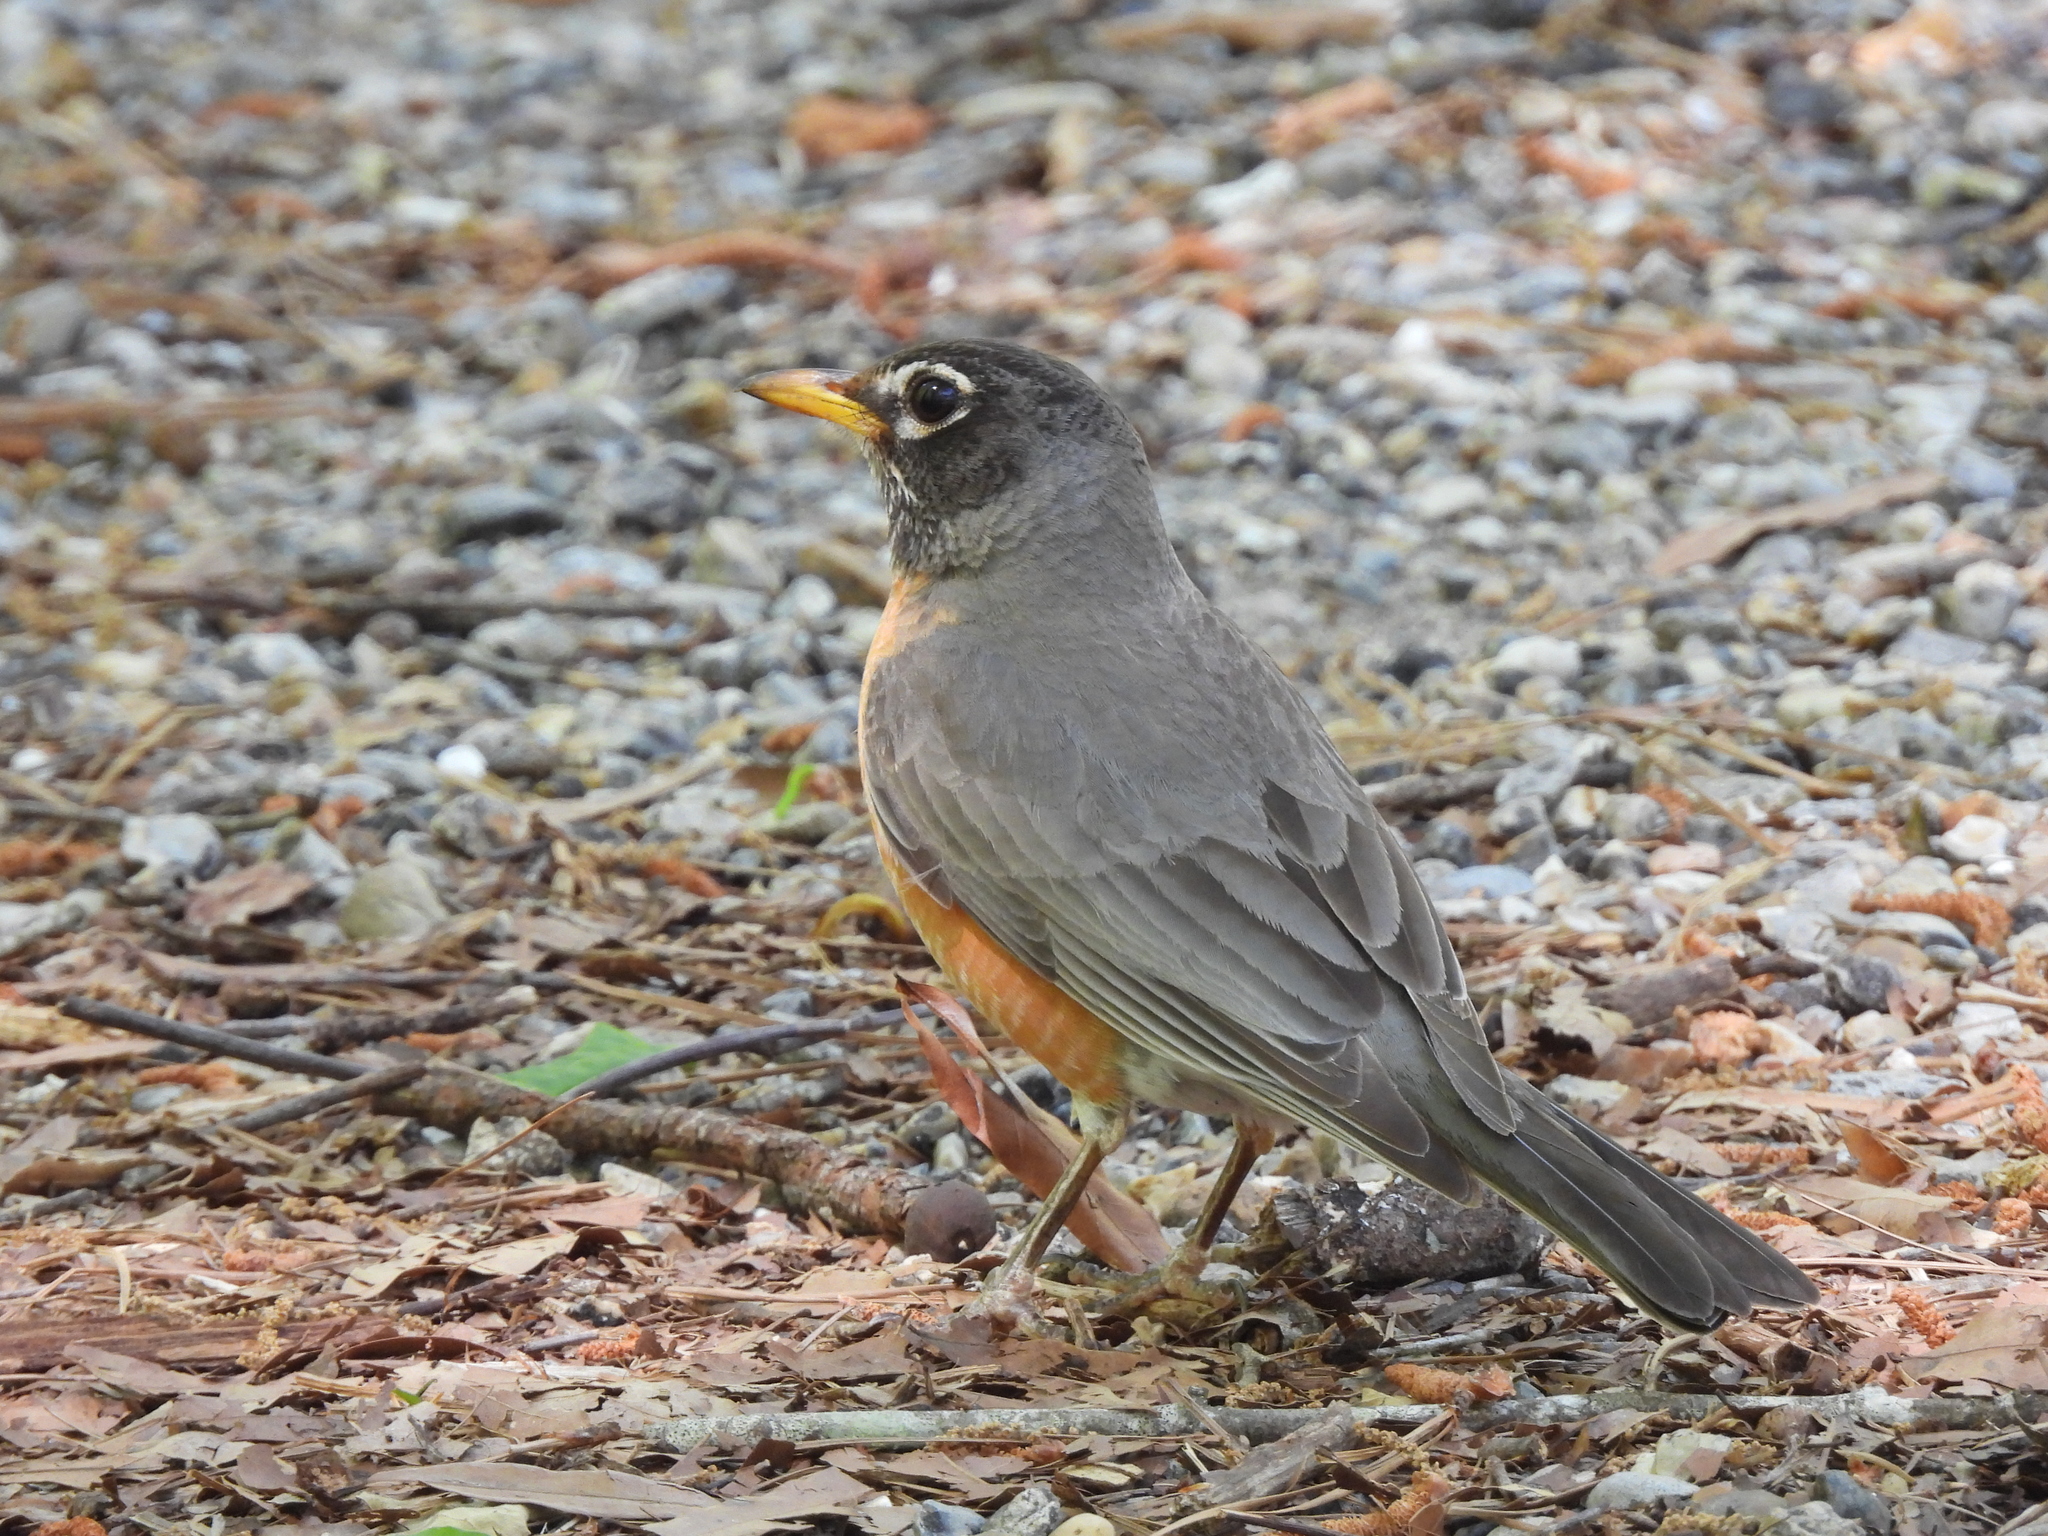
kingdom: Animalia
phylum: Chordata
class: Aves
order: Passeriformes
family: Turdidae
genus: Turdus
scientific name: Turdus migratorius
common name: American robin
